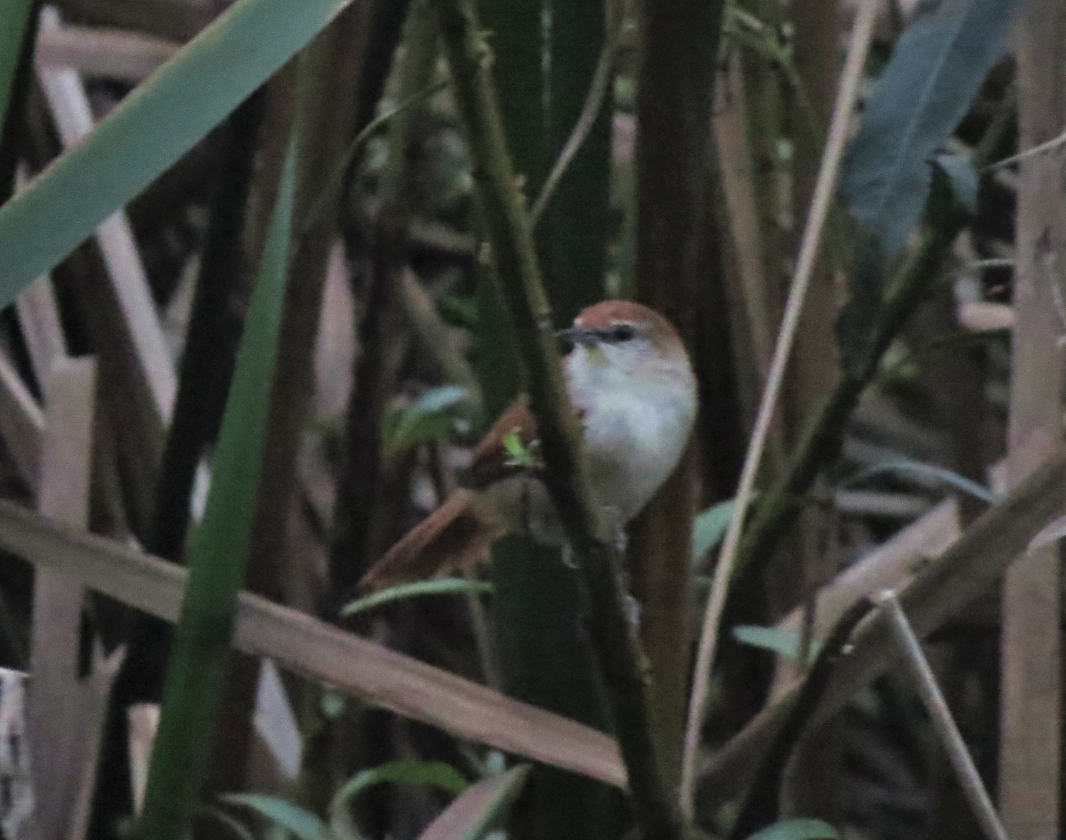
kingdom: Animalia
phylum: Chordata
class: Aves
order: Passeriformes
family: Furnariidae
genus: Certhiaxis
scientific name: Certhiaxis cinnamomeus
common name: Yellow-chinned spinetail
